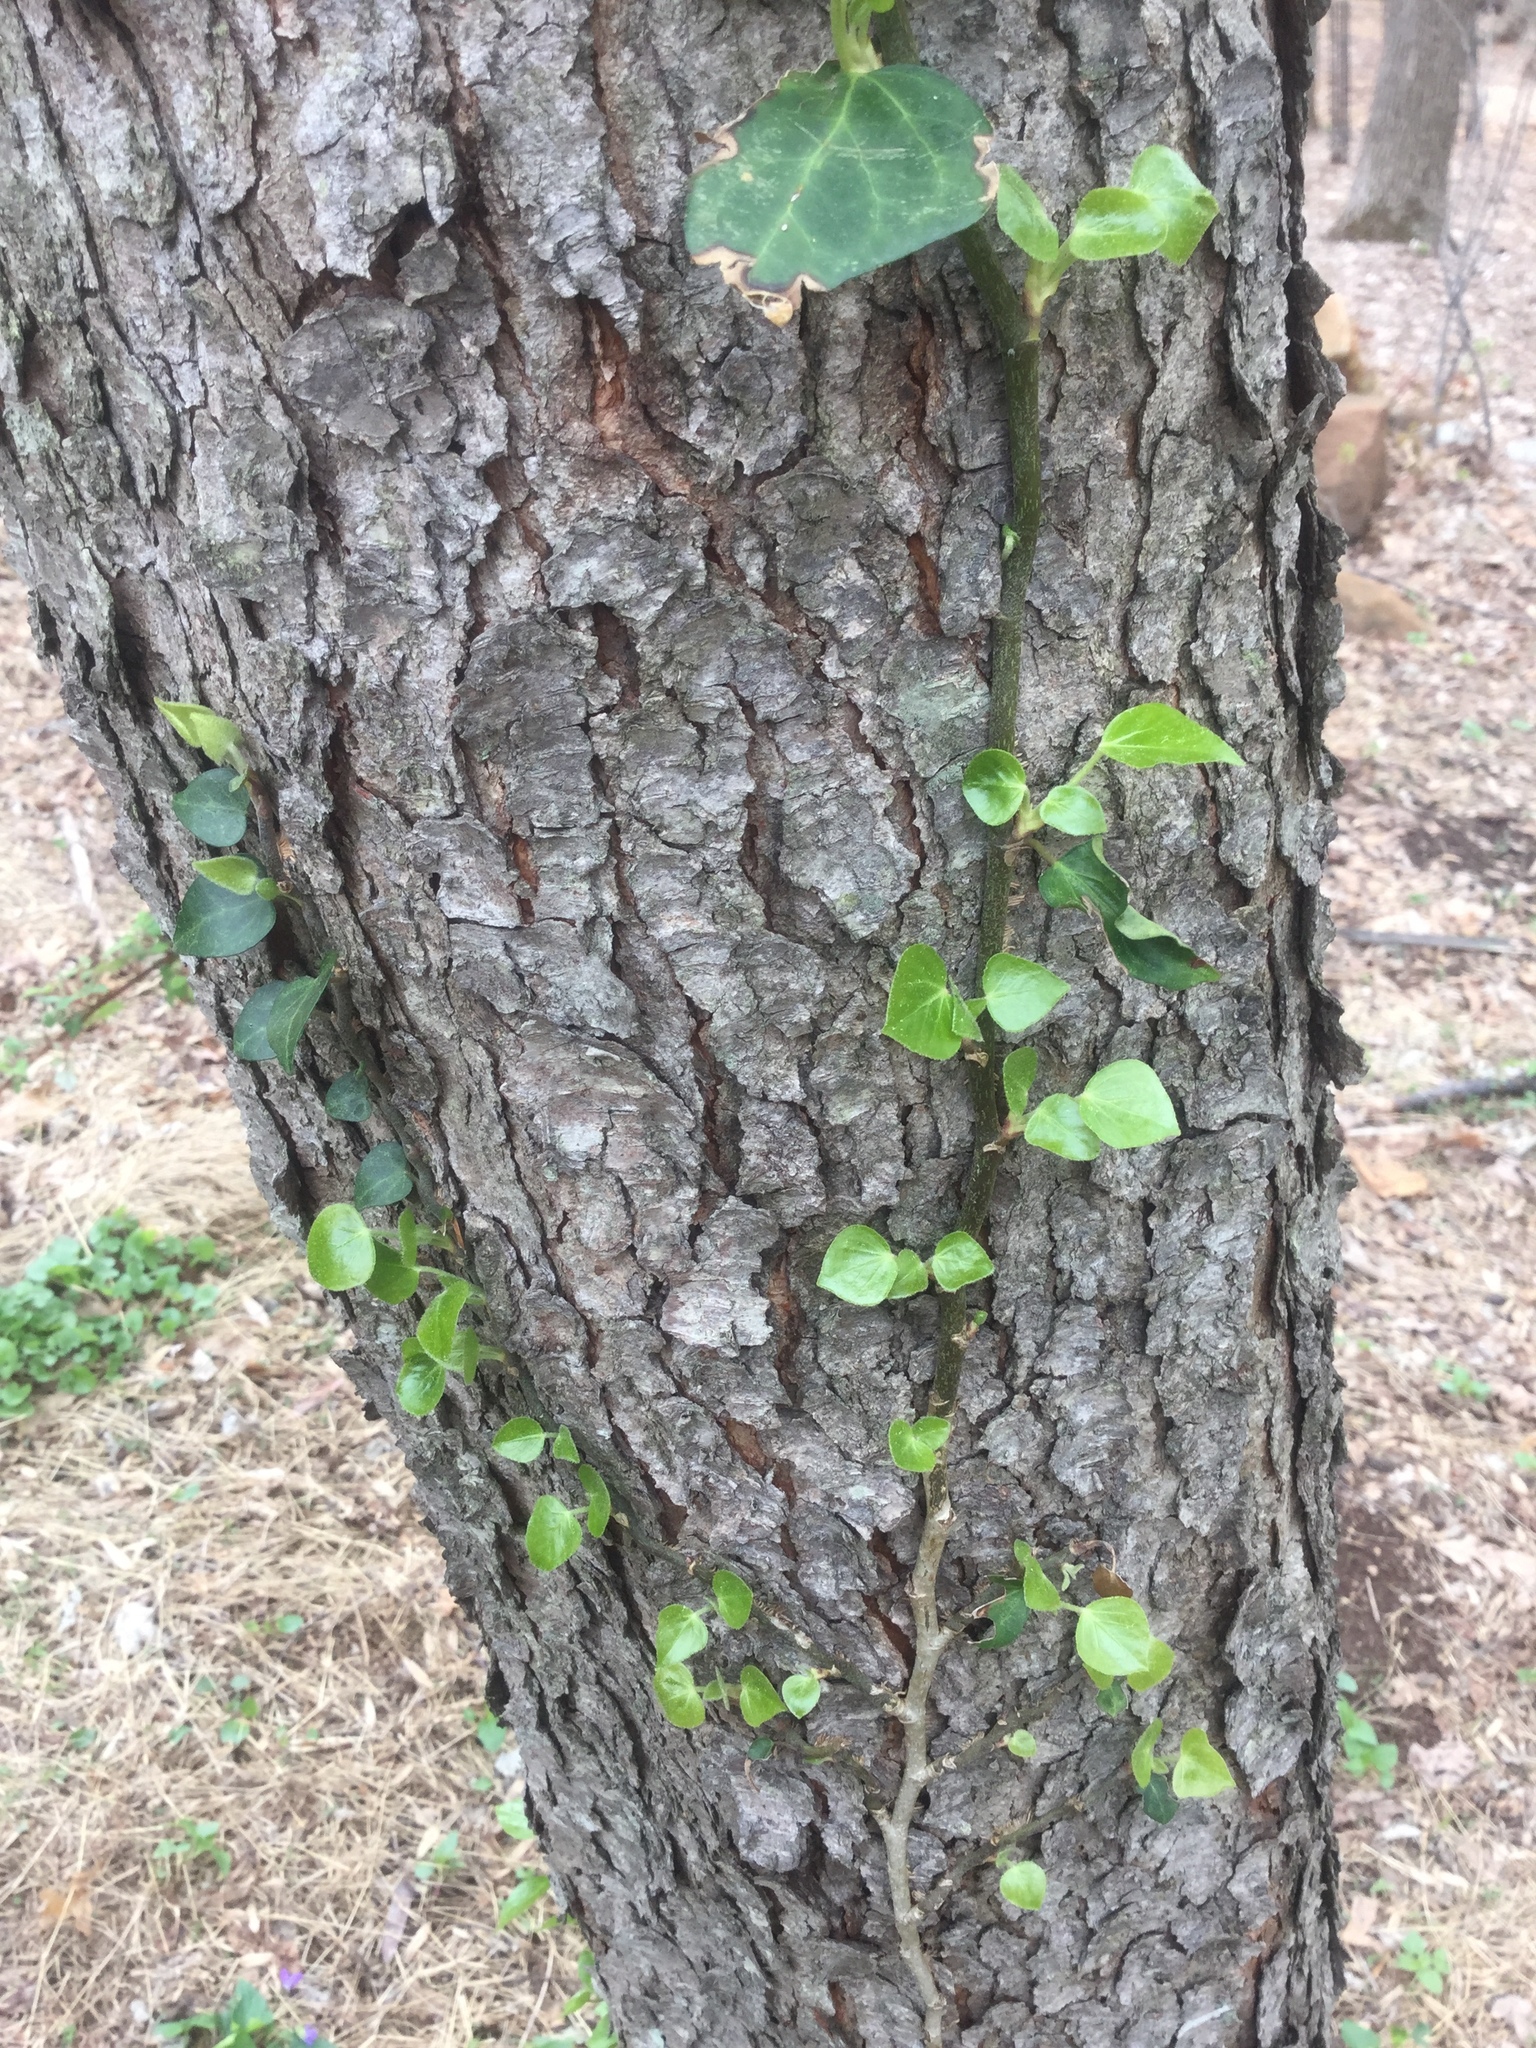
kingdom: Plantae
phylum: Tracheophyta
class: Magnoliopsida
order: Apiales
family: Araliaceae
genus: Hedera
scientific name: Hedera helix
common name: Ivy
